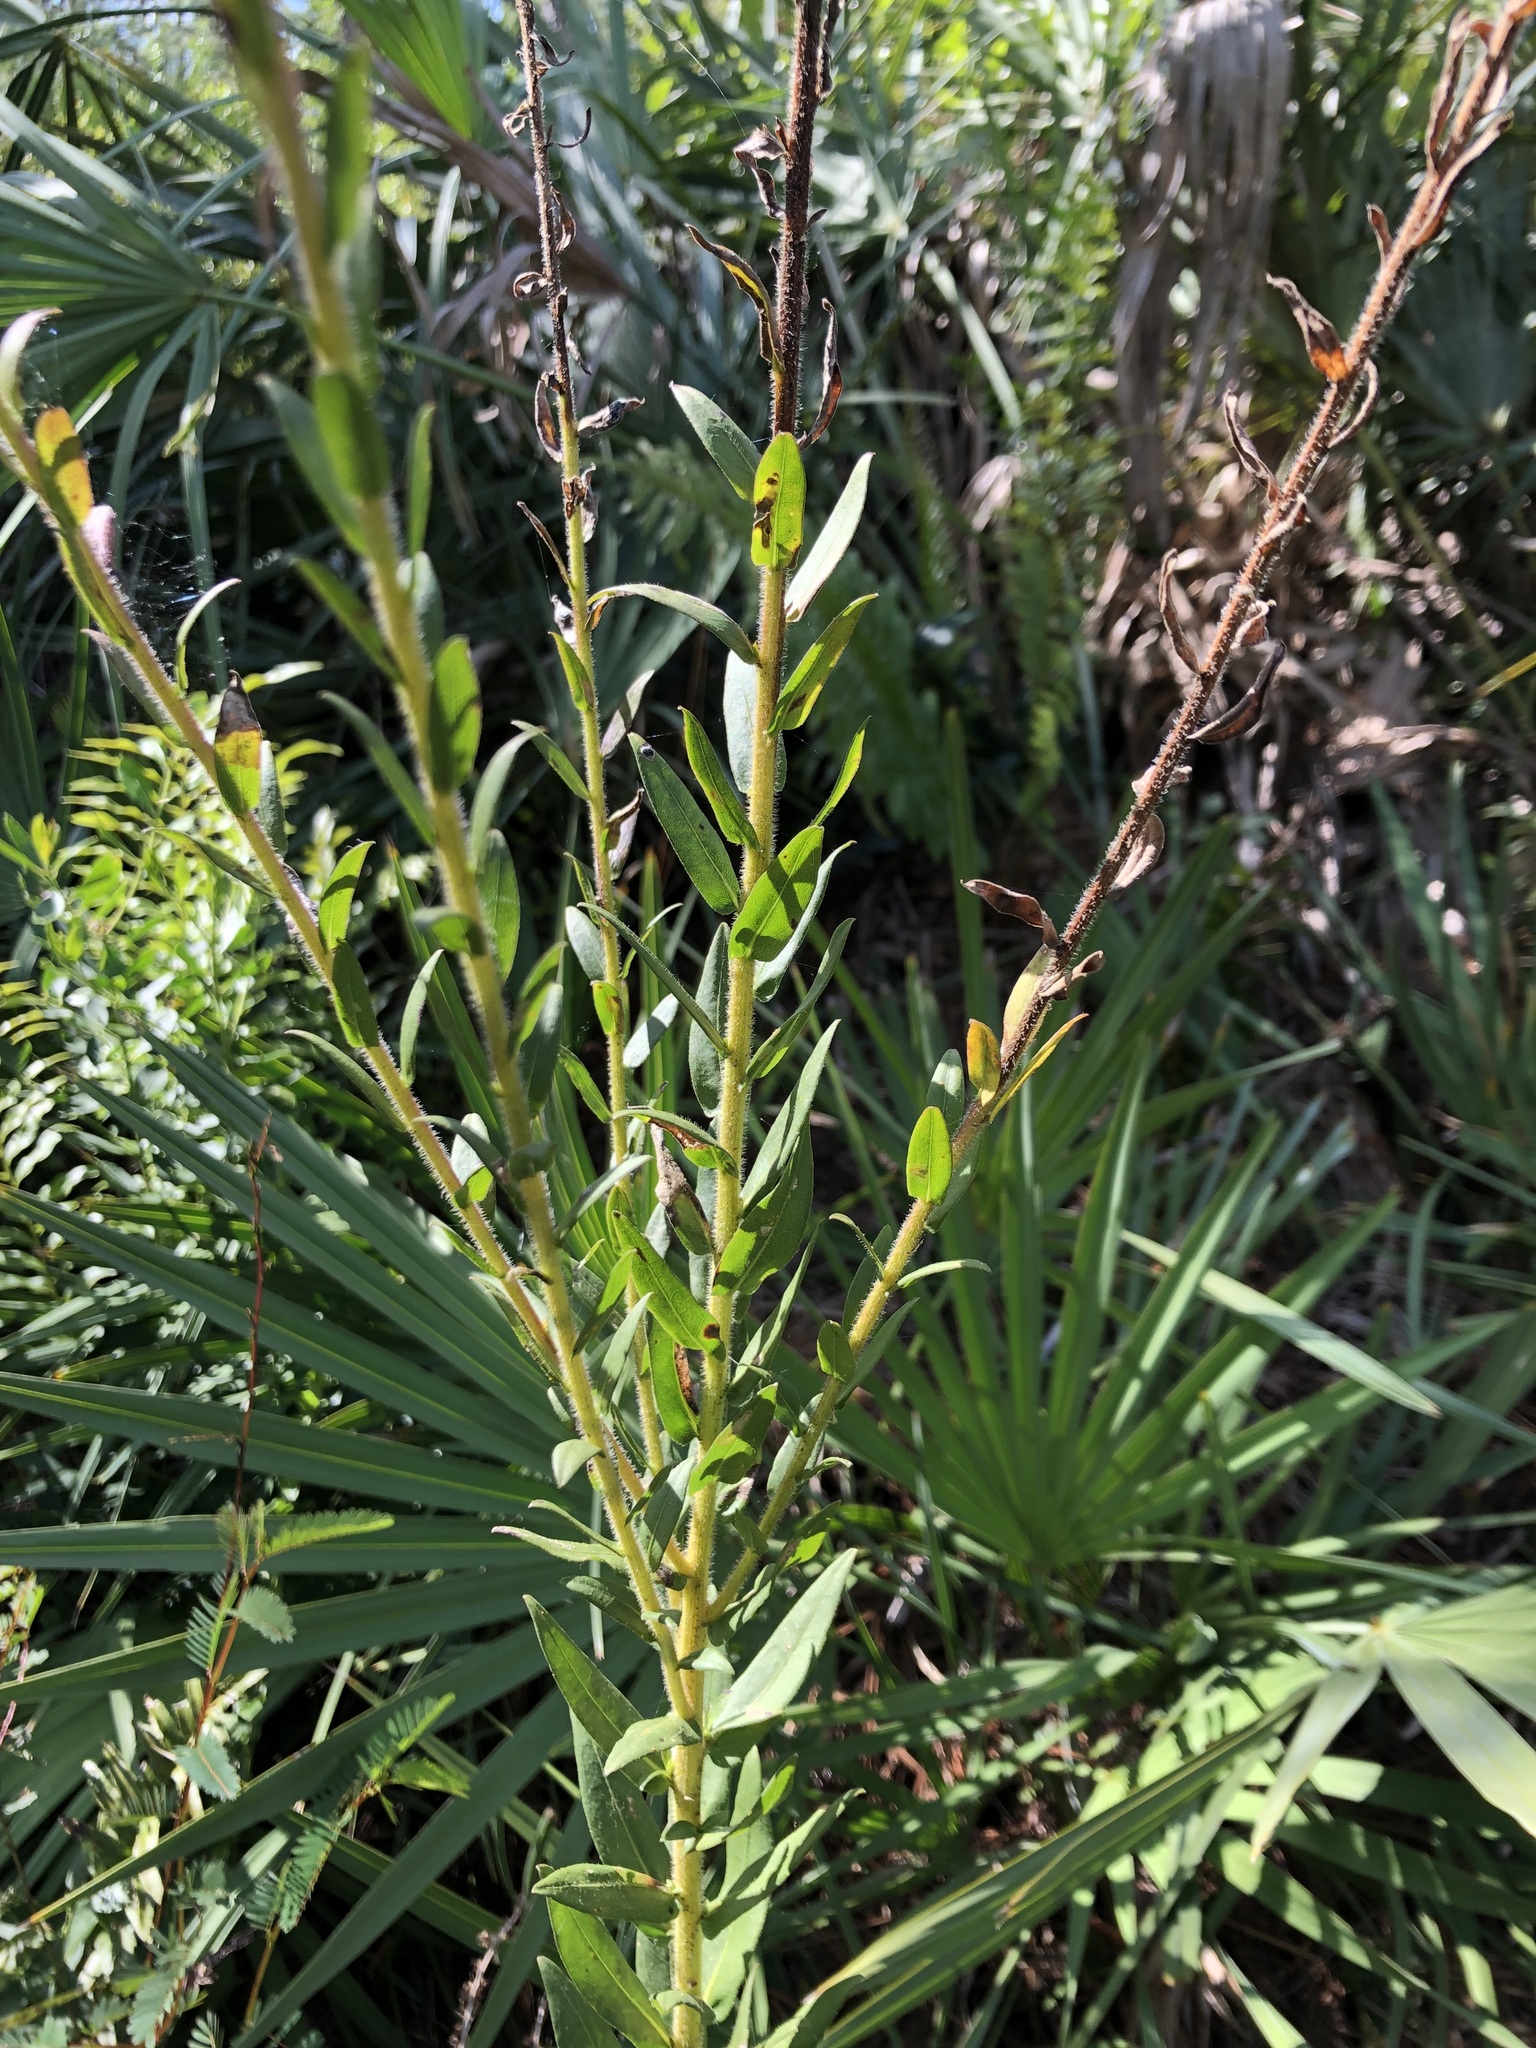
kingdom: Plantae
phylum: Tracheophyta
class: Magnoliopsida
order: Asterales
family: Asteraceae
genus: Solidago
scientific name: Solidago fistulosa
